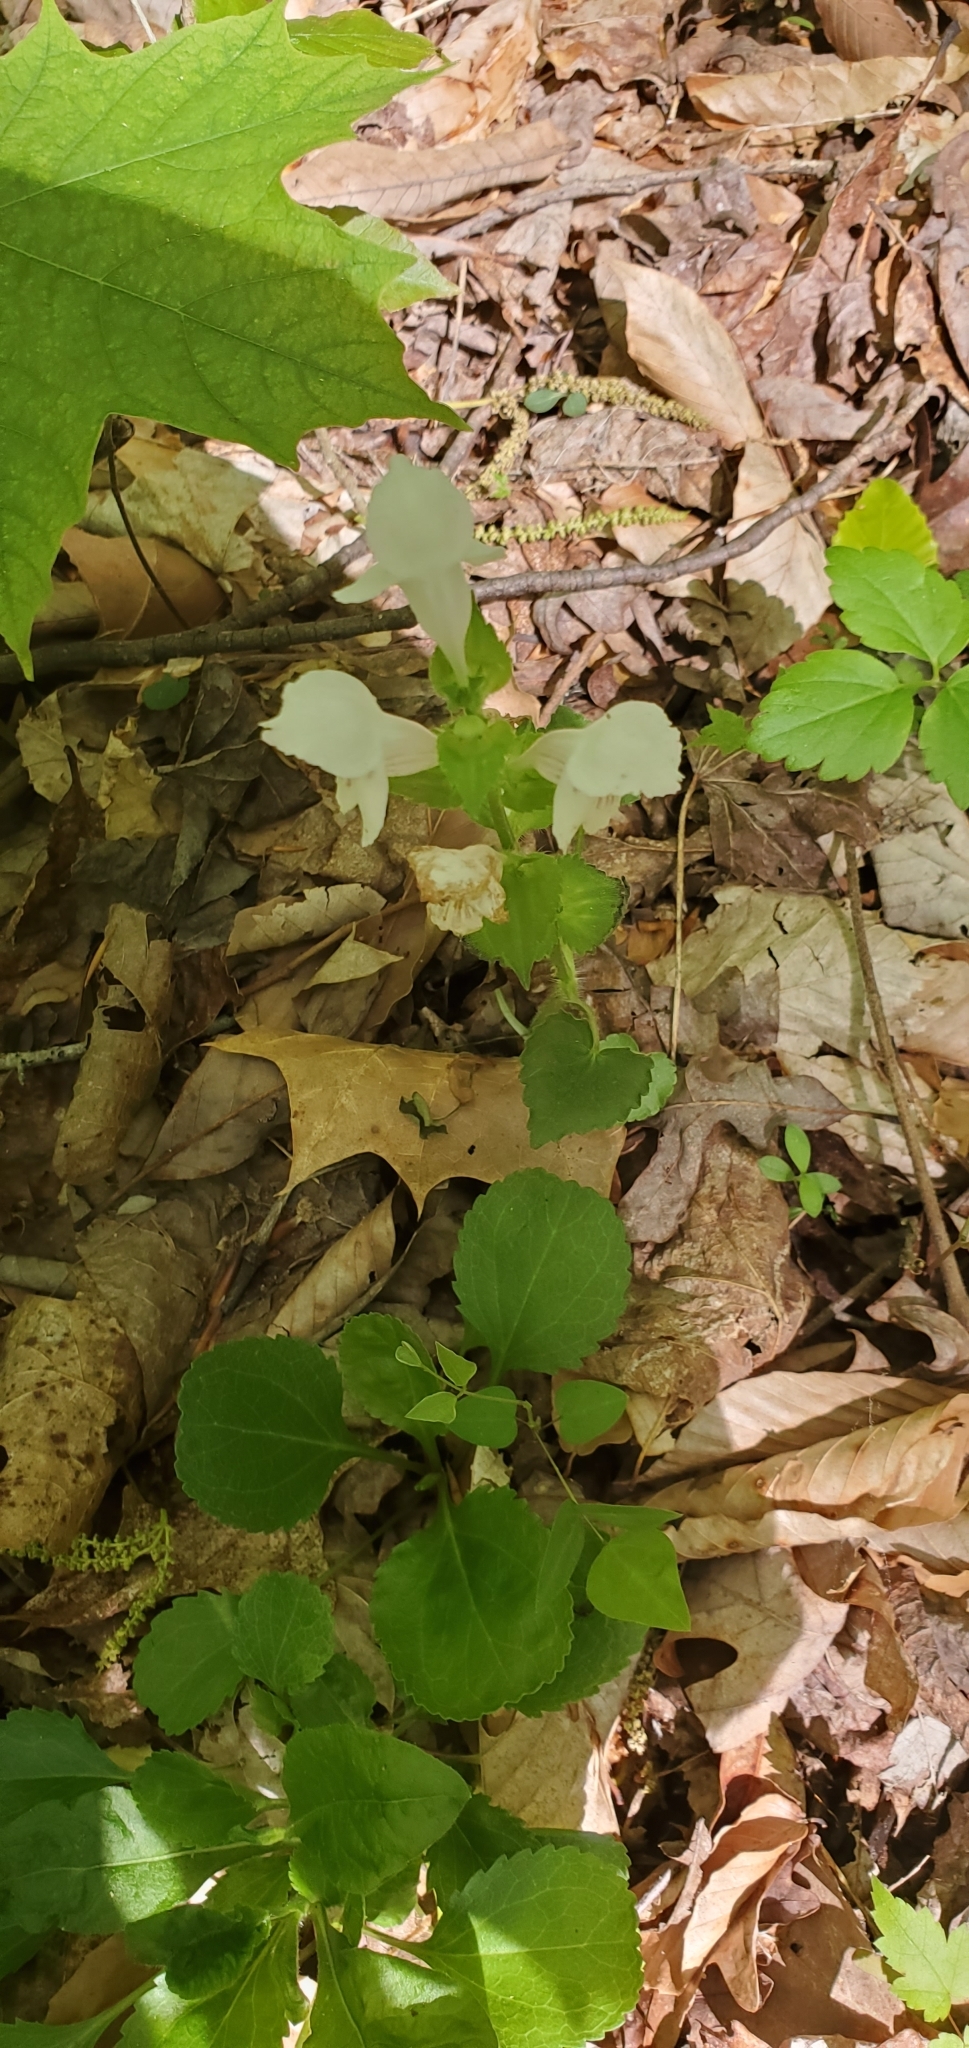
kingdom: Plantae
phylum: Tracheophyta
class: Magnoliopsida
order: Lamiales
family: Lamiaceae
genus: Synandra
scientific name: Synandra hispidula
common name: Synandra
